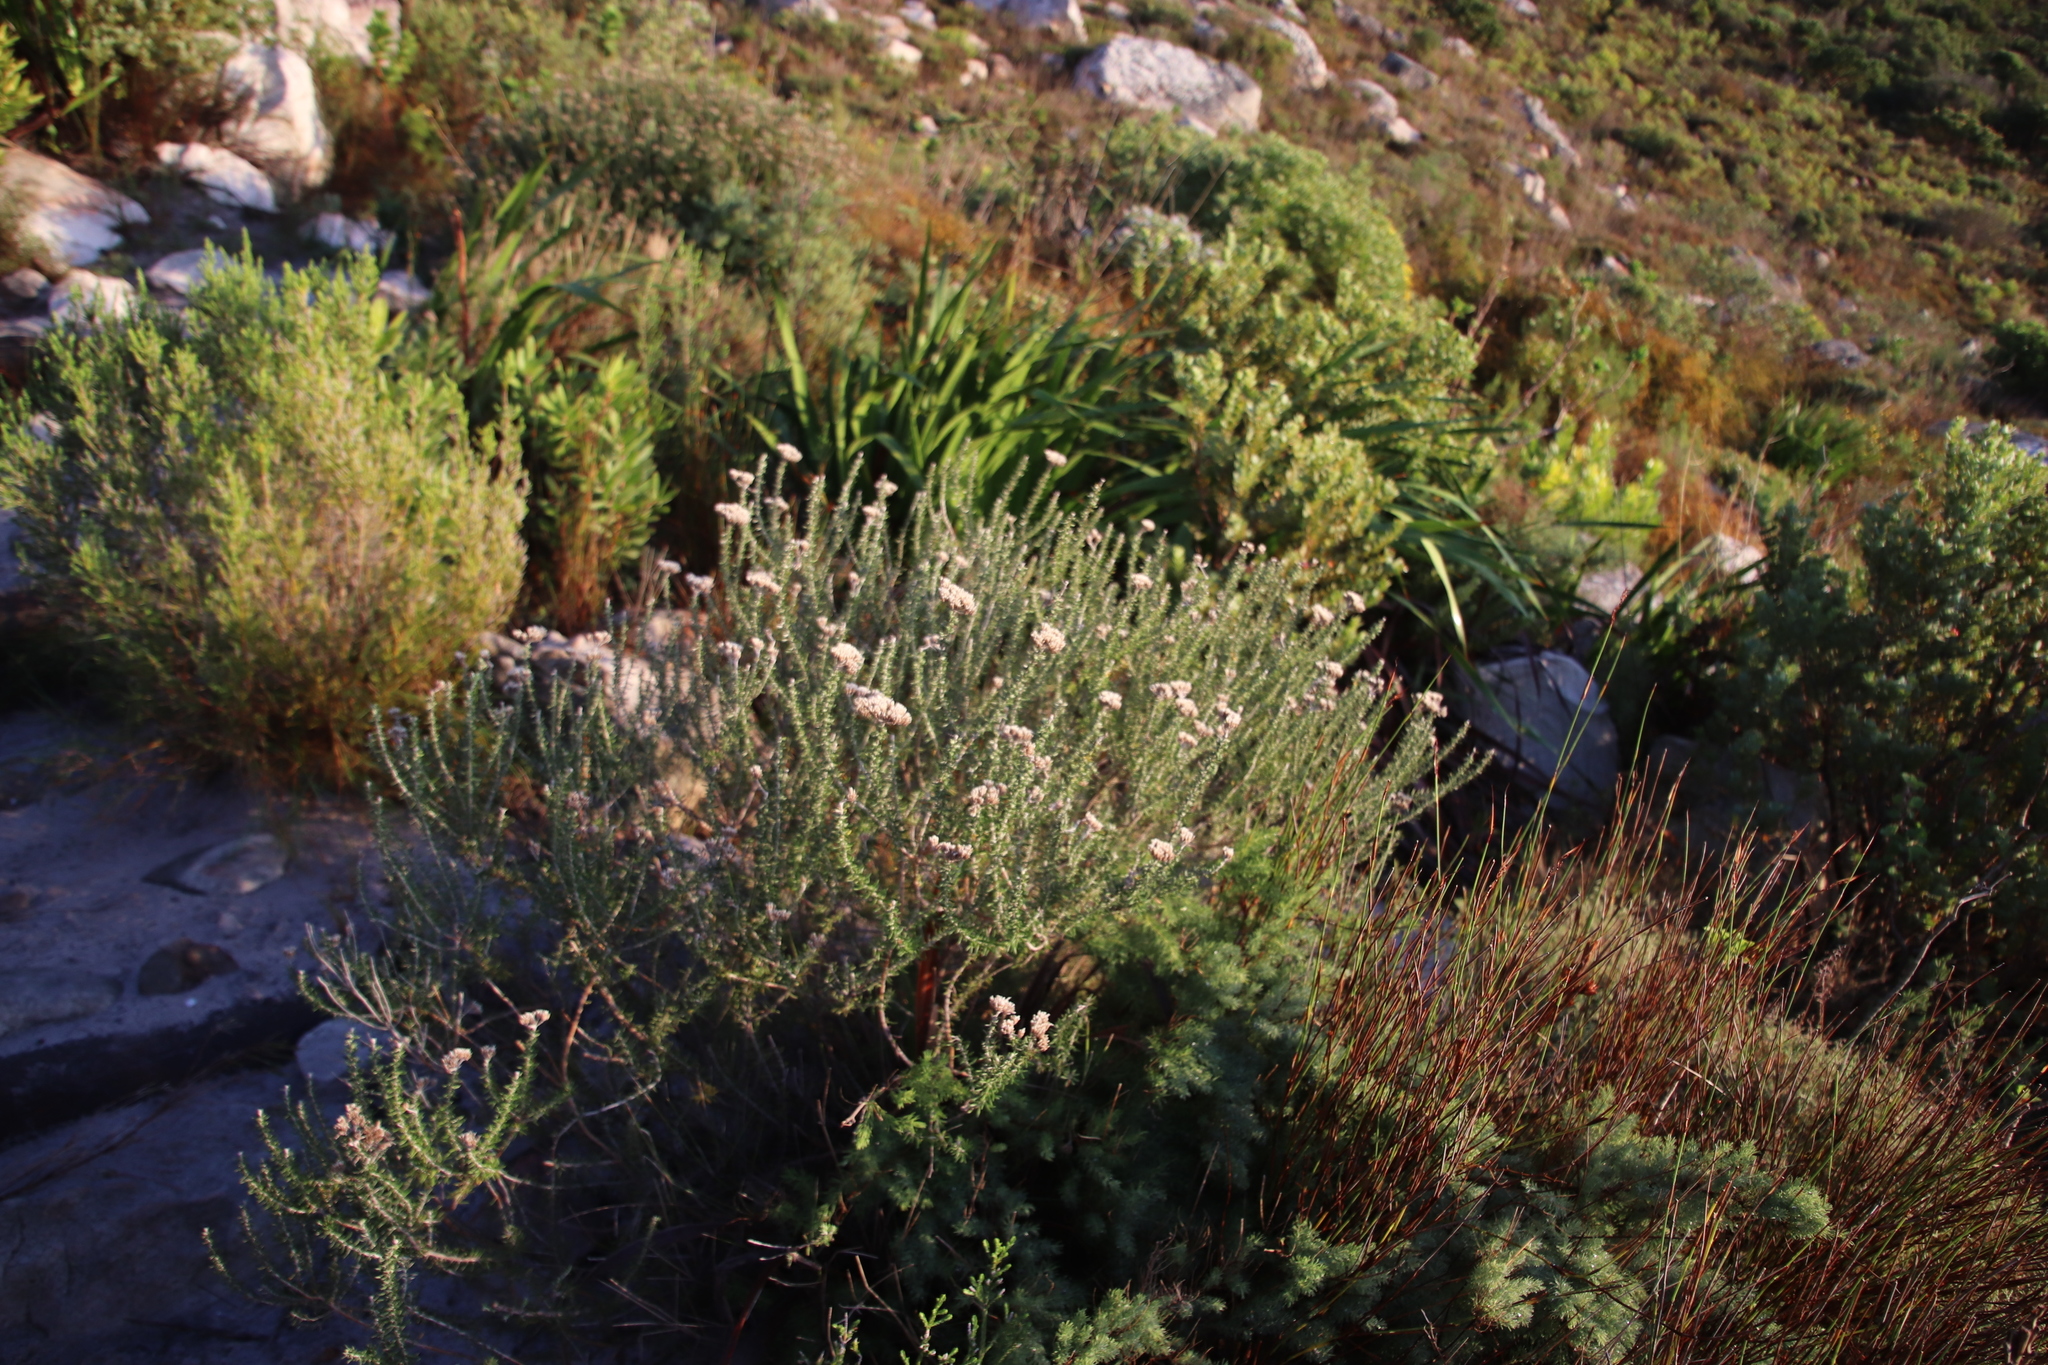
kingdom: Plantae
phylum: Tracheophyta
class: Magnoliopsida
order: Asterales
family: Asteraceae
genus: Metalasia
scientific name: Metalasia densa
